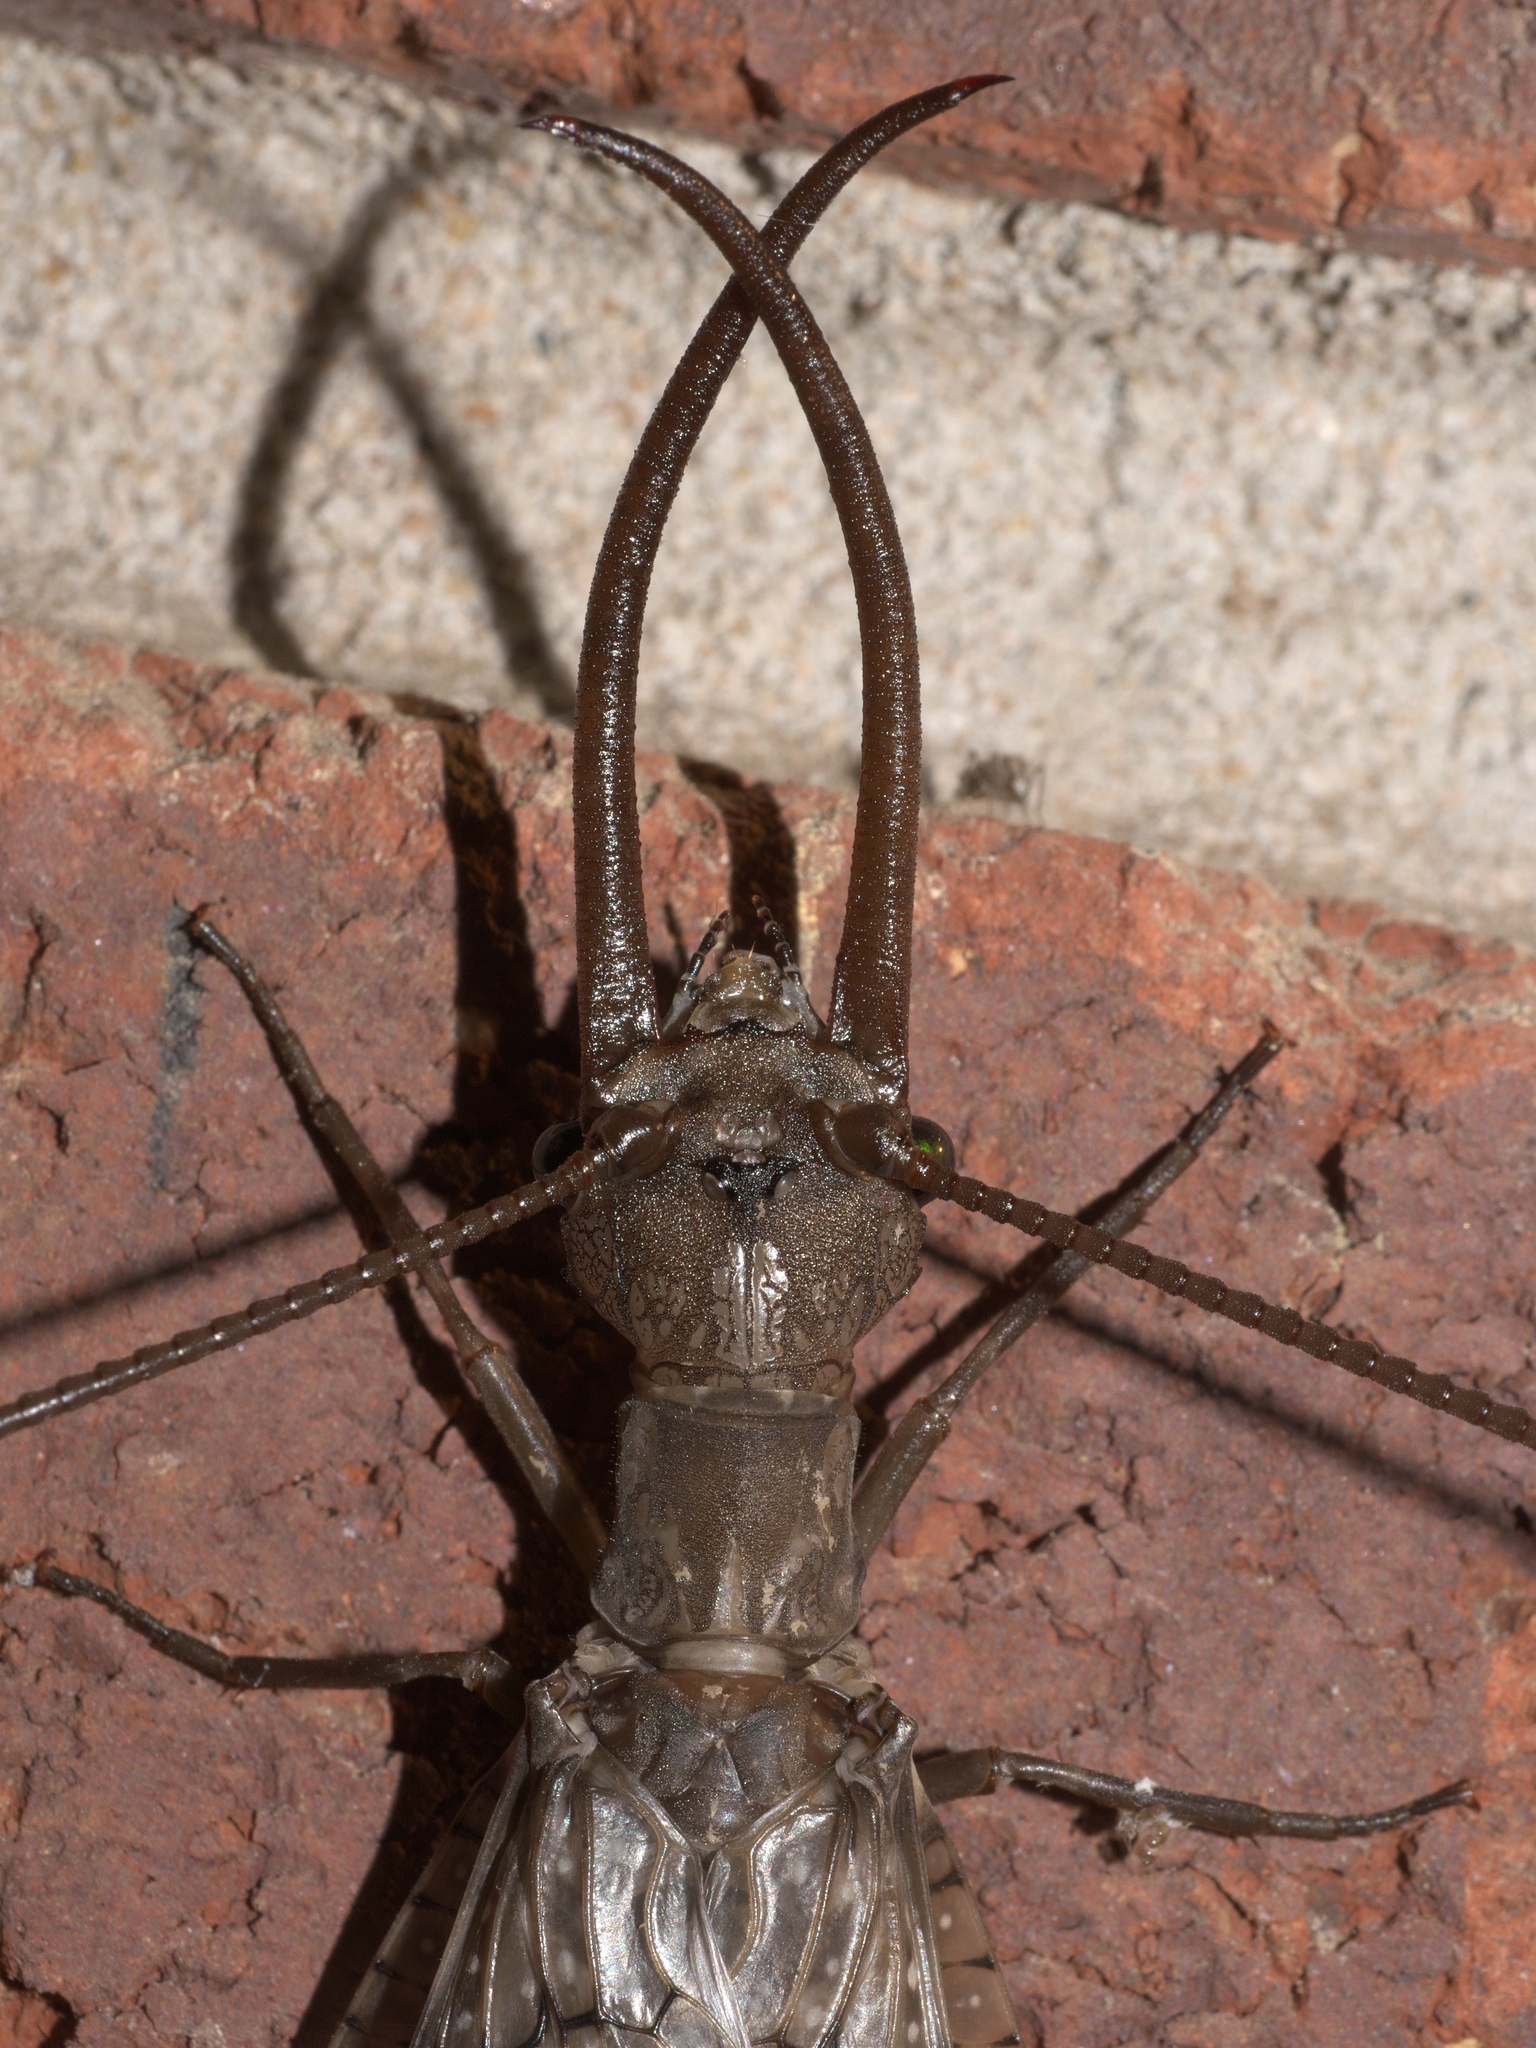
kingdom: Animalia
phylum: Arthropoda
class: Insecta
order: Megaloptera
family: Corydalidae
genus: Corydalus
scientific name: Corydalus cornutus
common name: Dobsonfly
